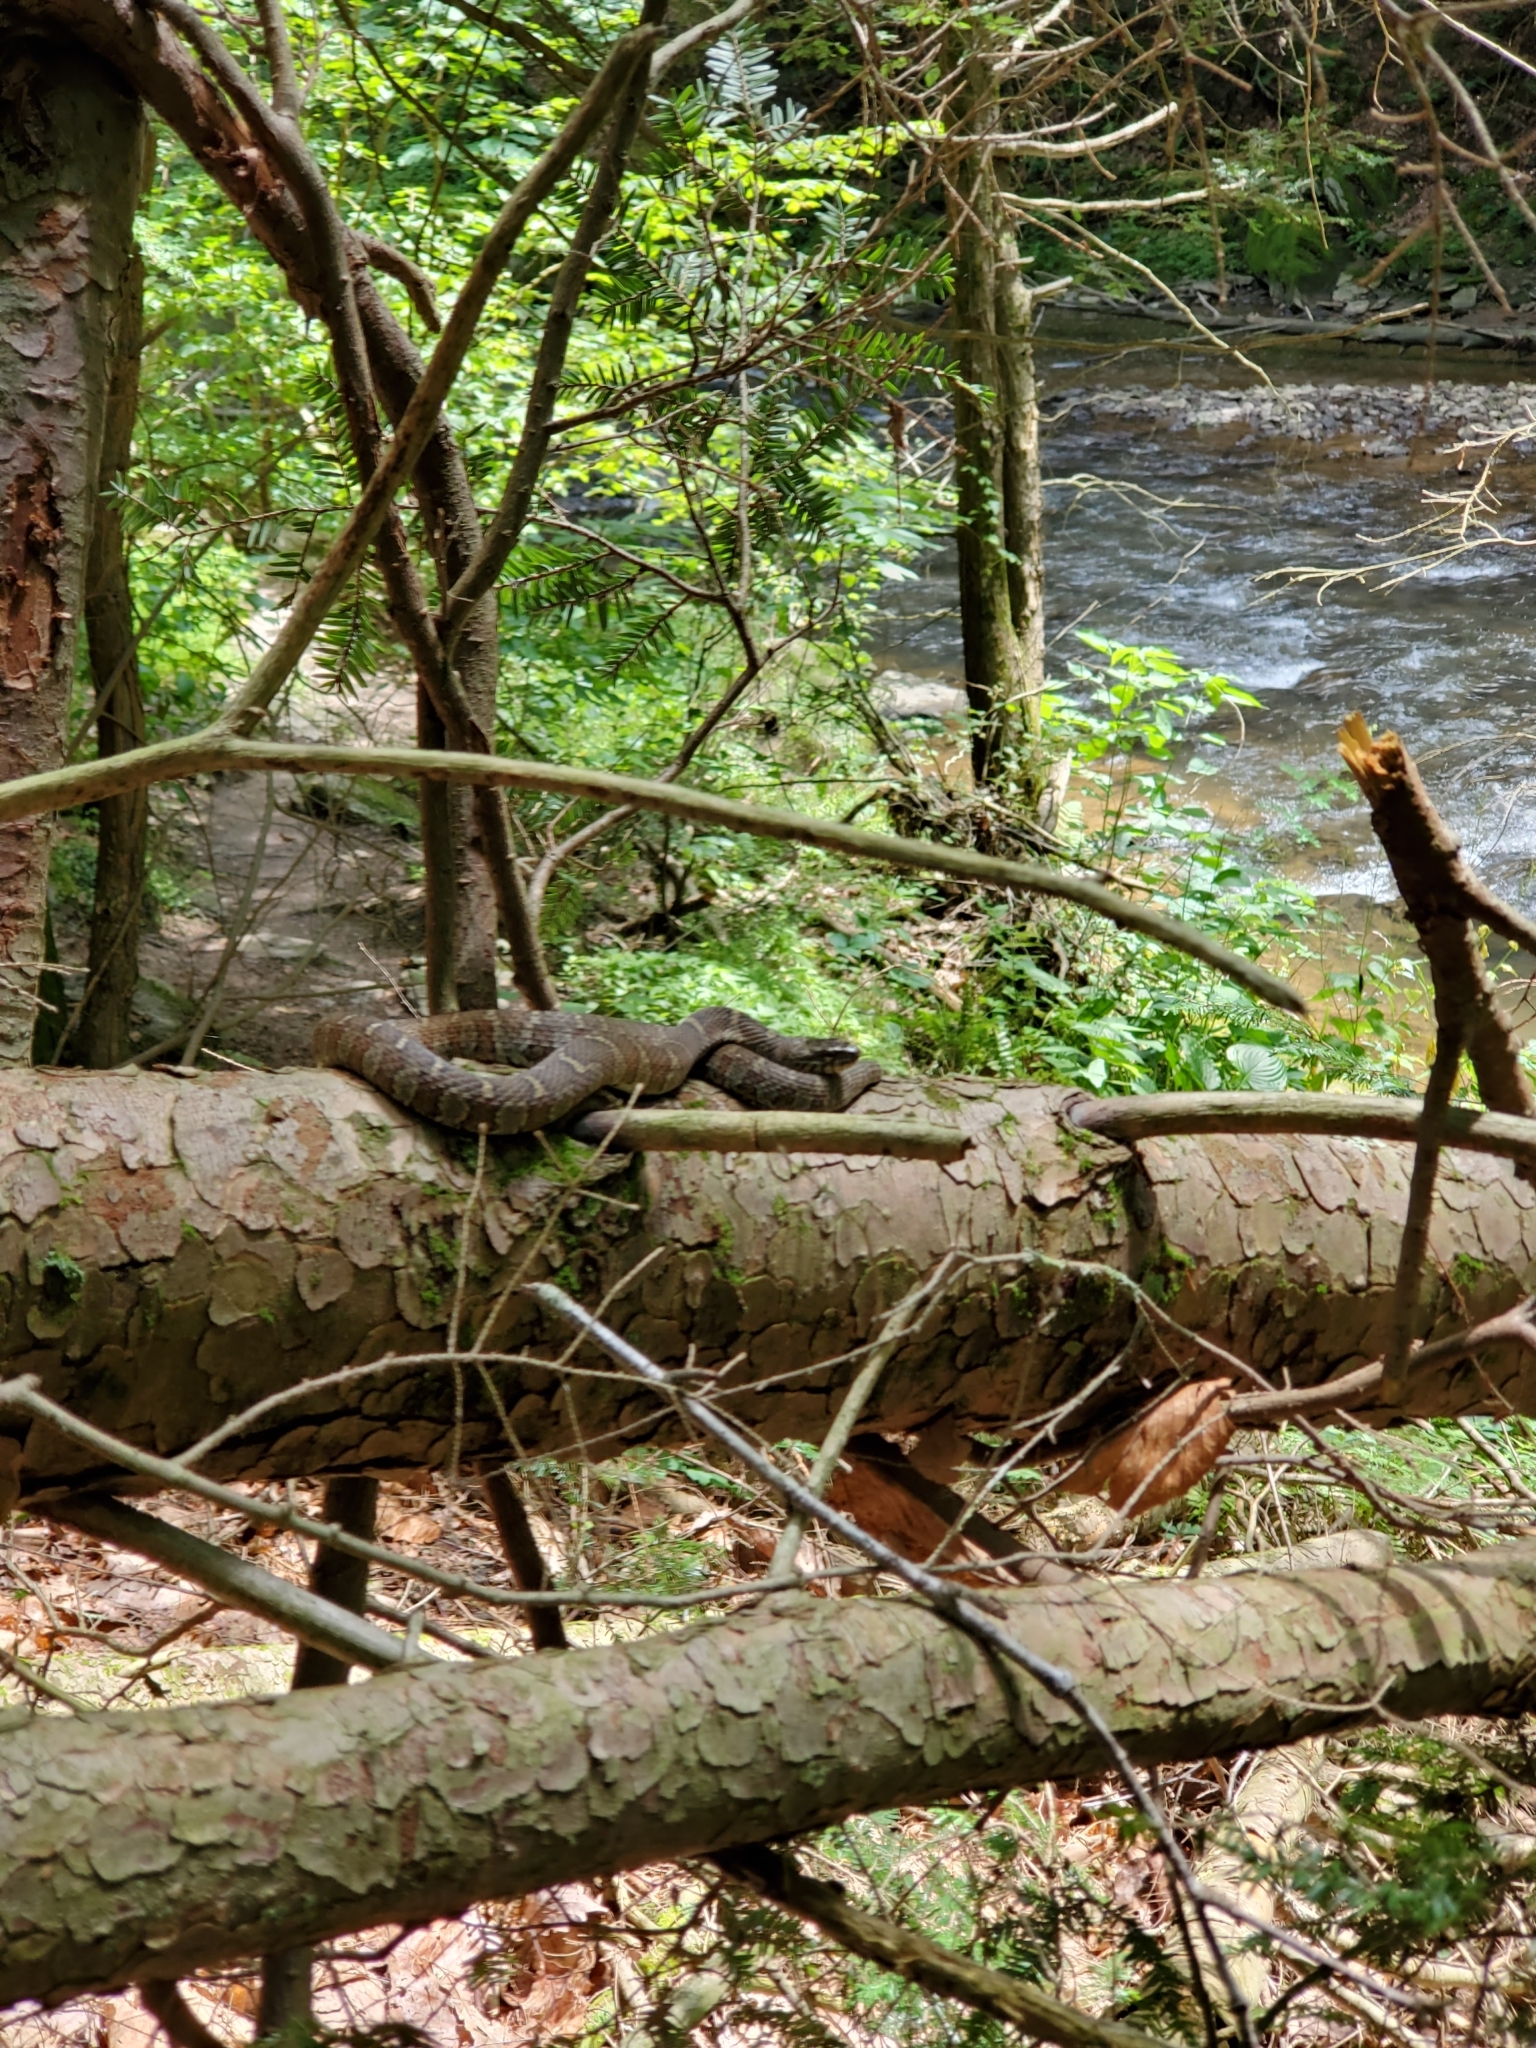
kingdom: Animalia
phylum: Chordata
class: Squamata
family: Colubridae
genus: Nerodia
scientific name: Nerodia sipedon
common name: Northern water snake
